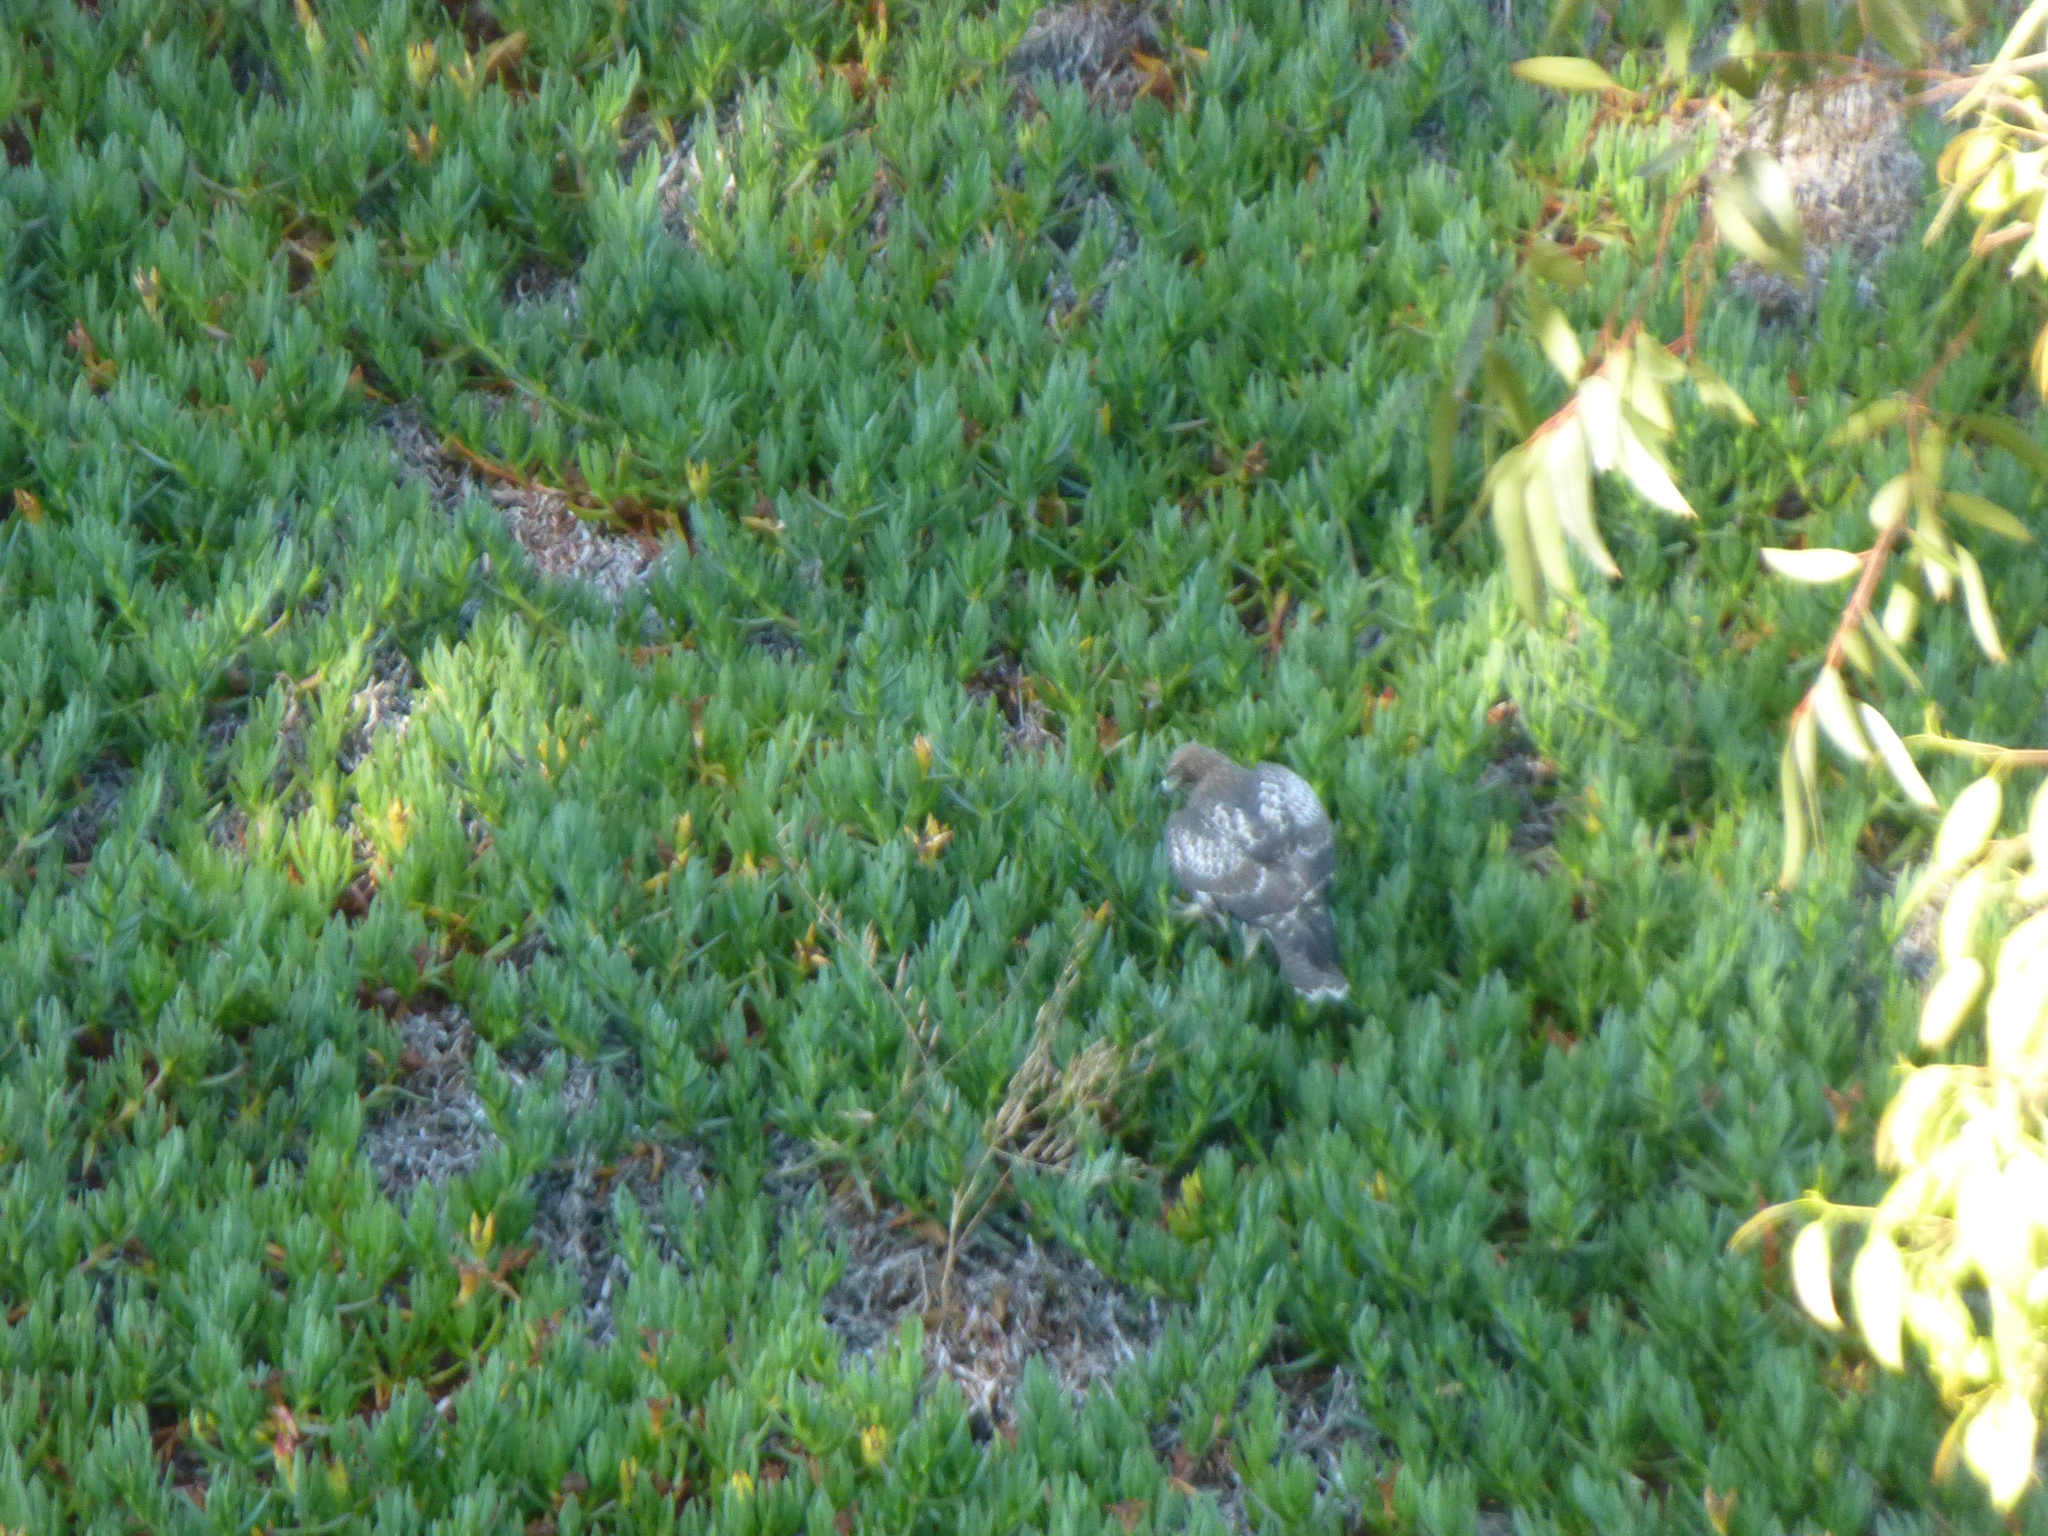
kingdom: Animalia
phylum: Chordata
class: Aves
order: Accipitriformes
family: Accipitridae
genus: Buteo
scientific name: Buteo jamaicensis
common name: Red-tailed hawk
